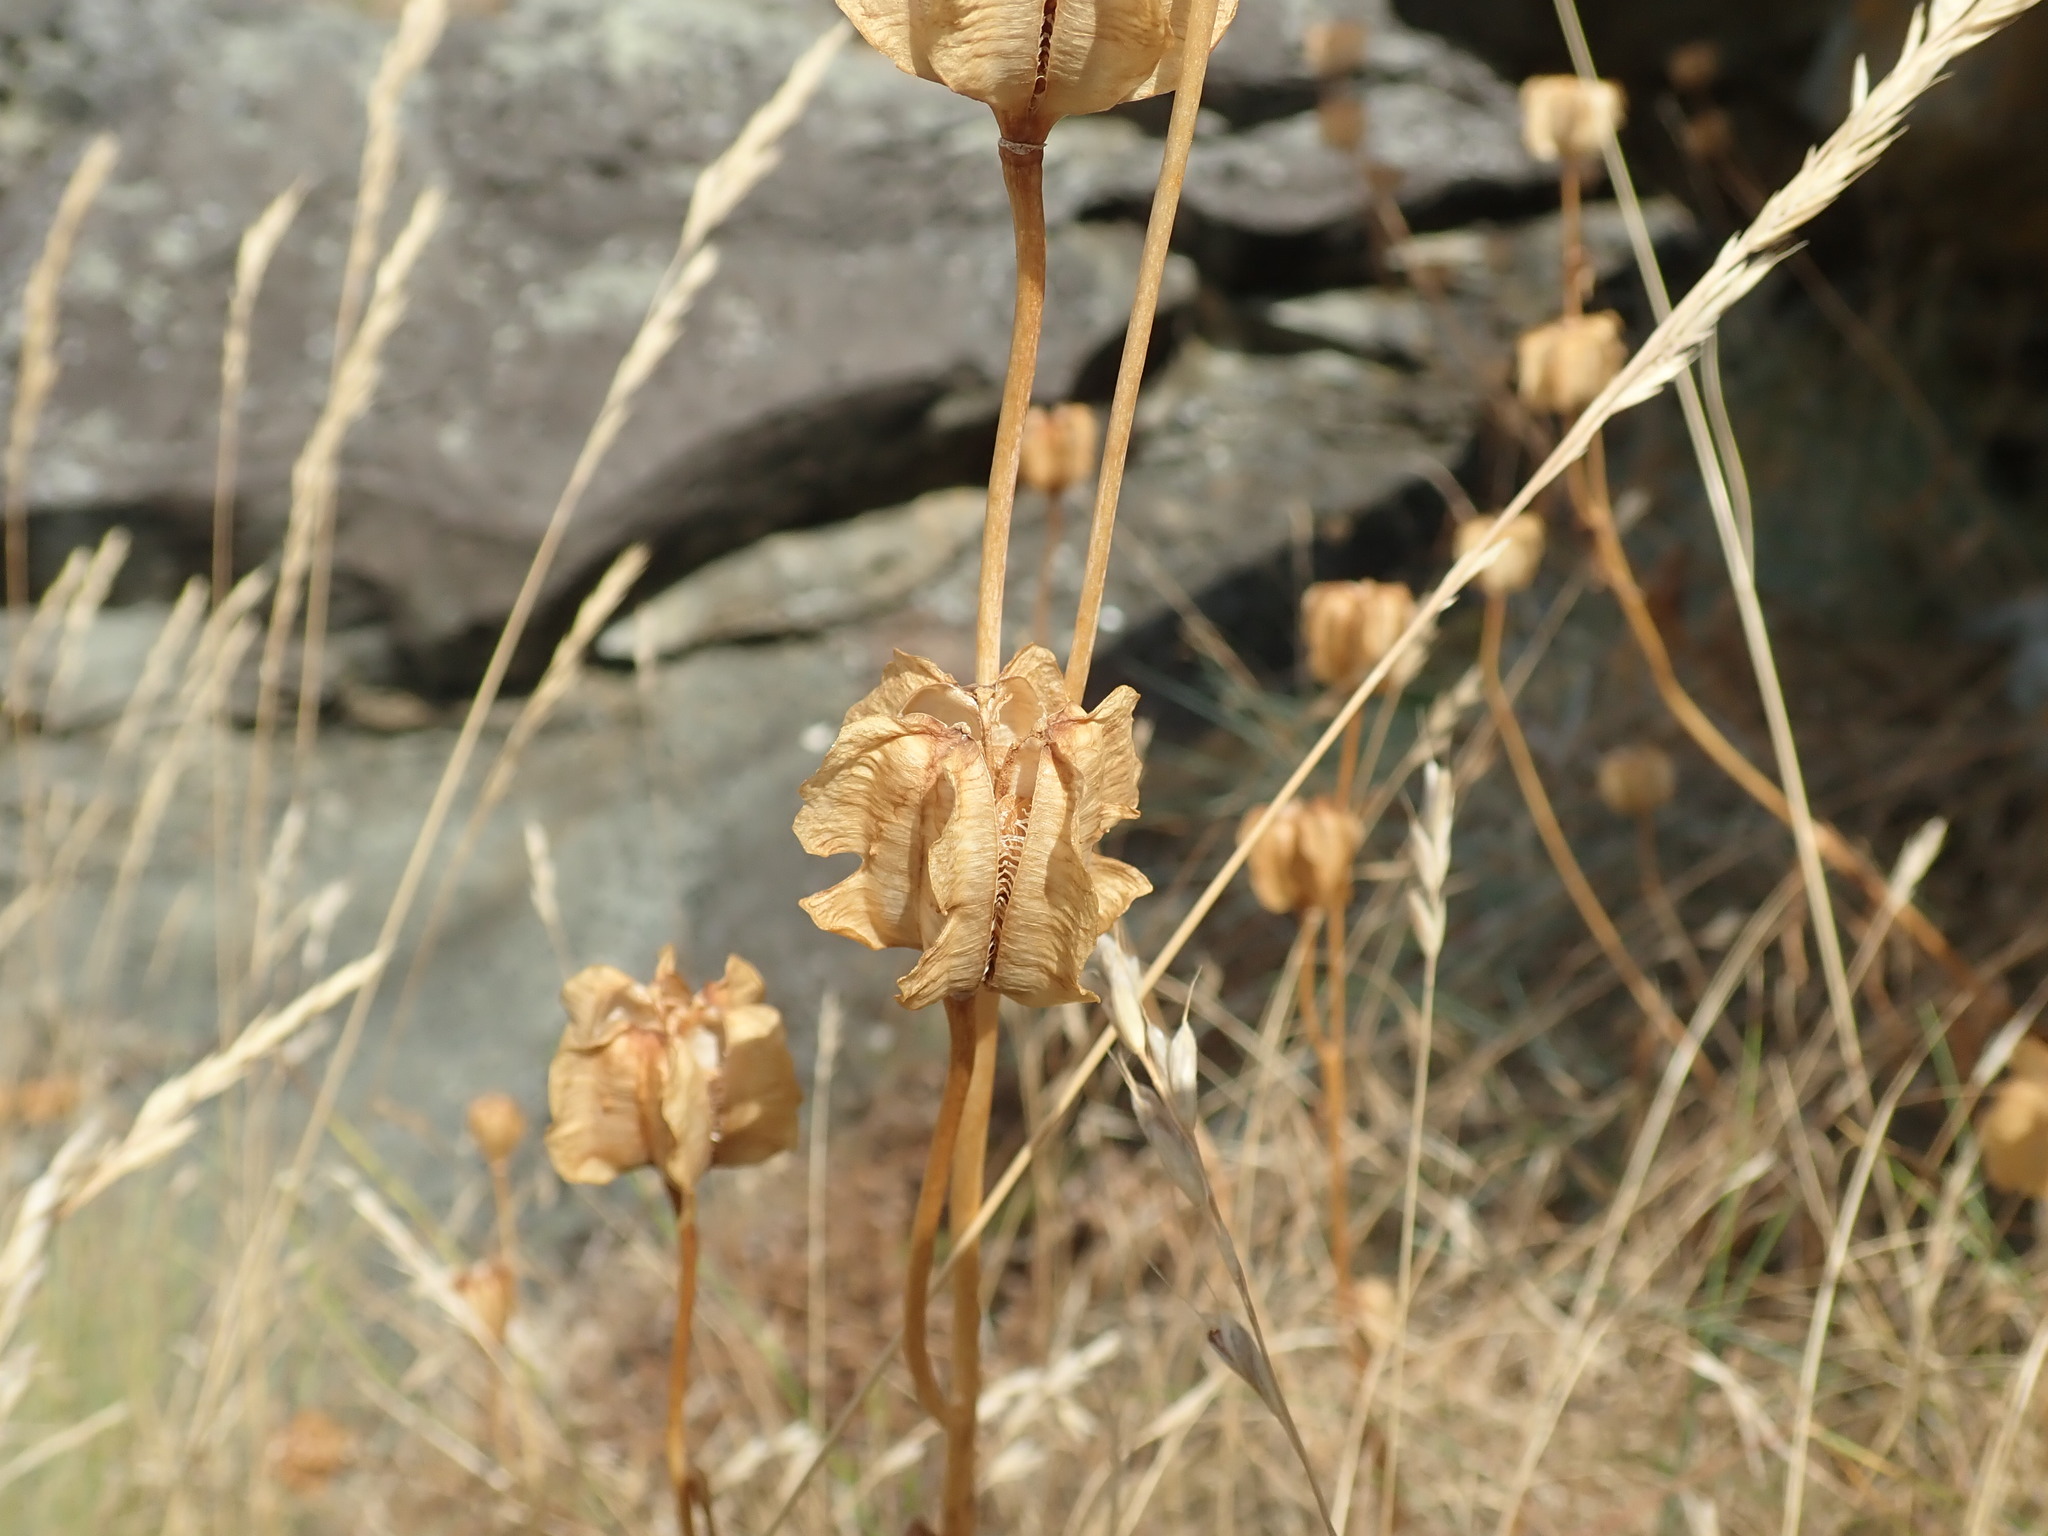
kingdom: Plantae
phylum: Tracheophyta
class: Liliopsida
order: Liliales
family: Liliaceae
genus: Fritillaria
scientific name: Fritillaria affinis
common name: Ojai fritillary
